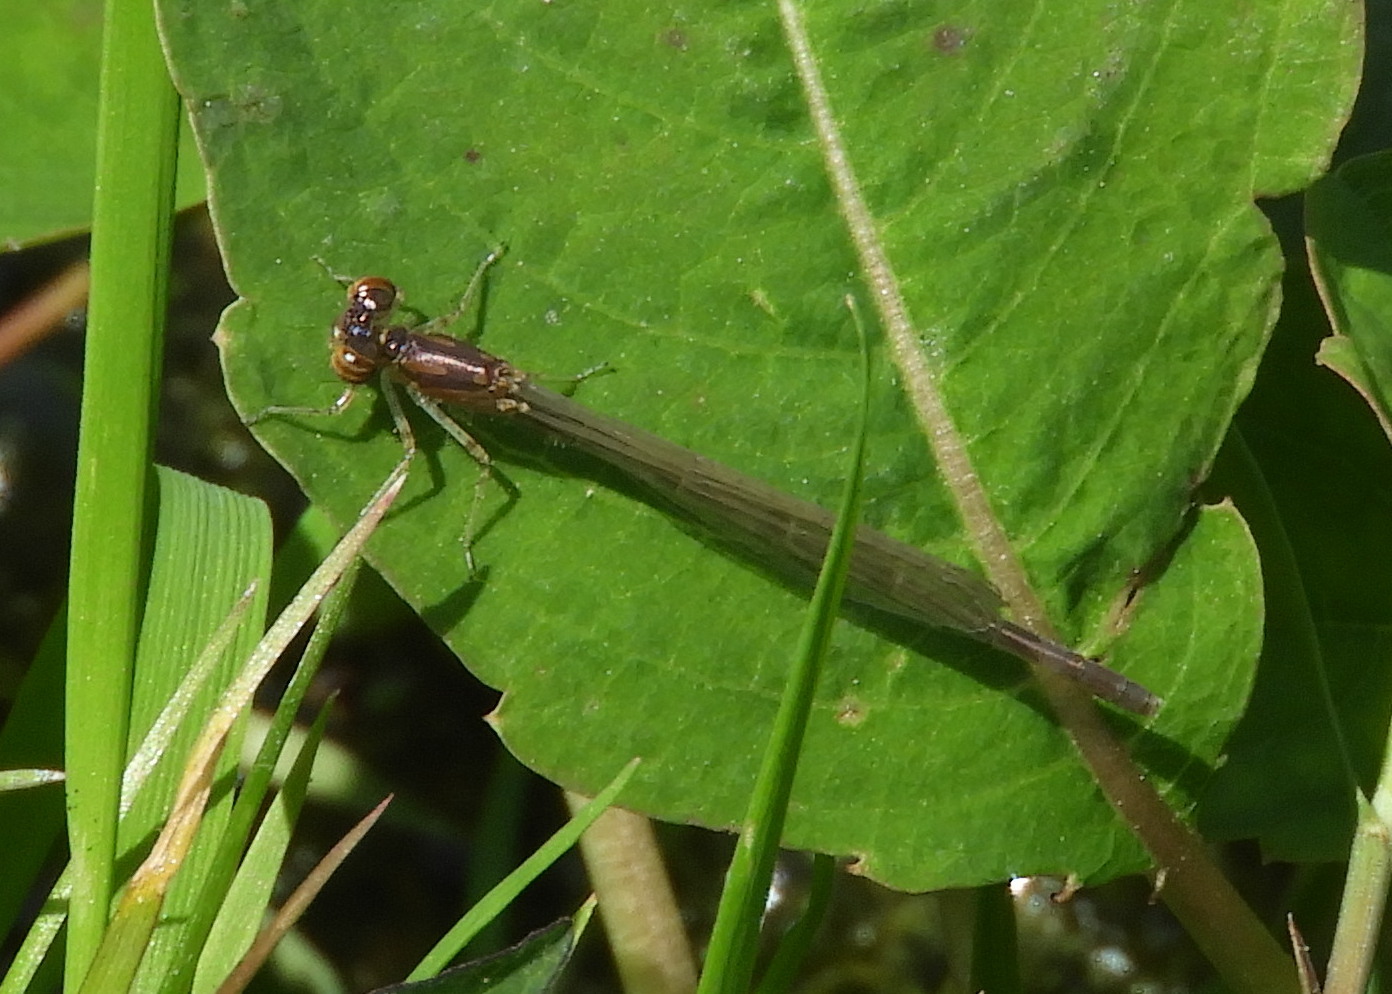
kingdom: Animalia
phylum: Arthropoda
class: Insecta
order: Odonata
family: Coenagrionidae
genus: Ischnura
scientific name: Ischnura posita
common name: Fragile forktail
